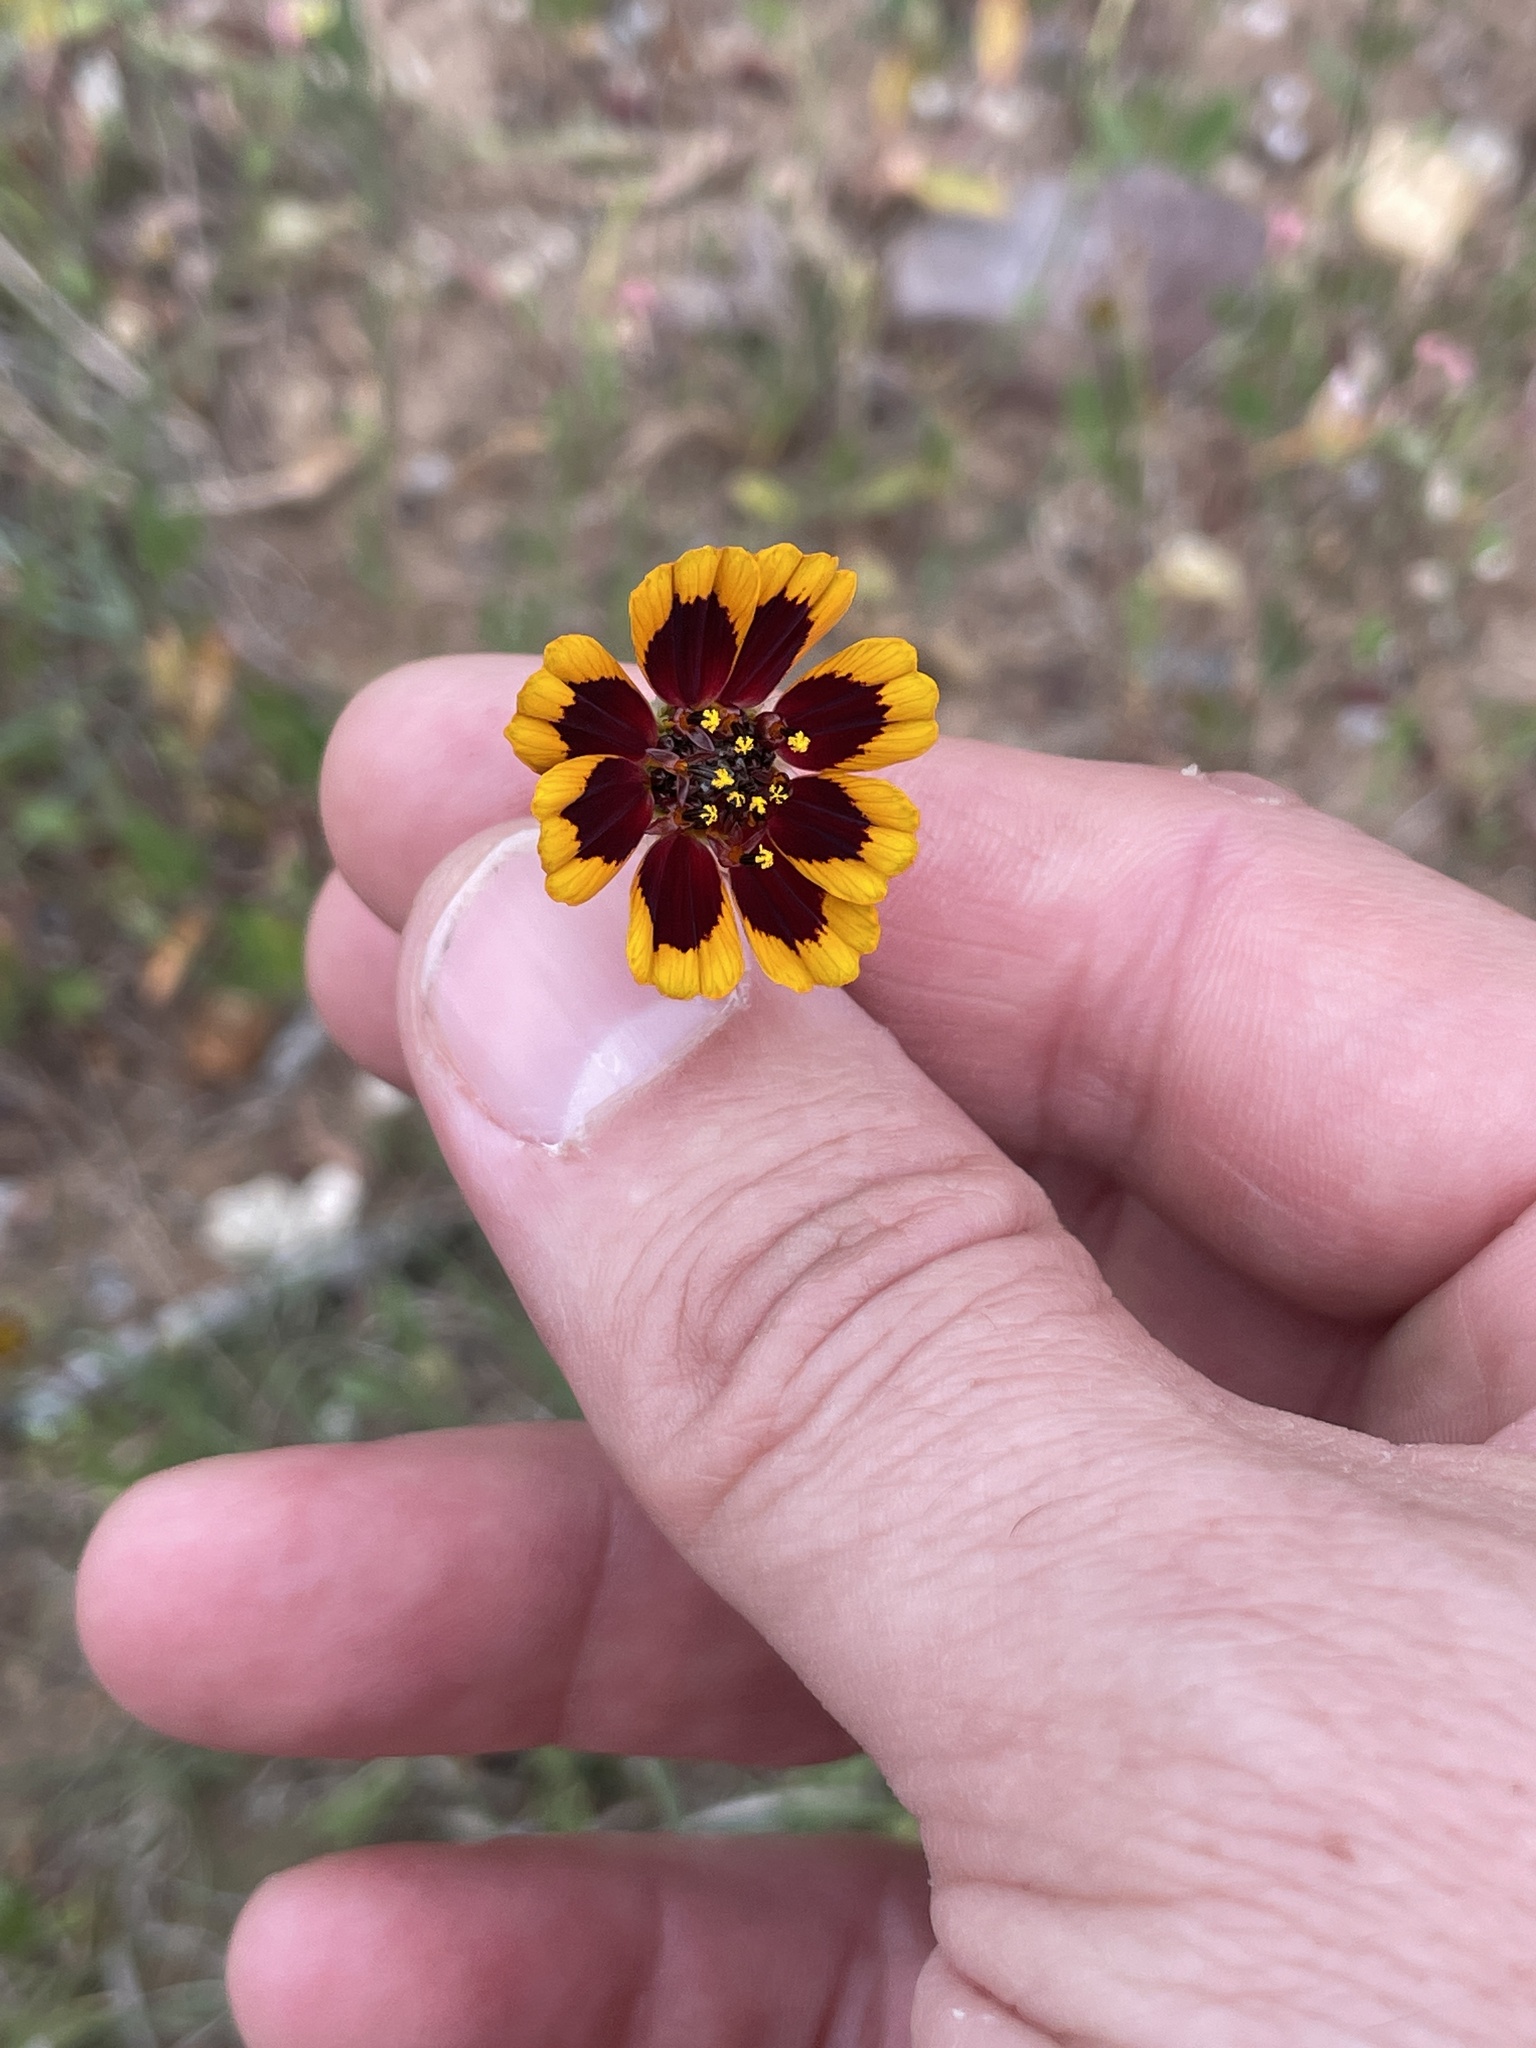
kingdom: Plantae
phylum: Tracheophyta
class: Magnoliopsida
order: Asterales
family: Asteraceae
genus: Thelesperma
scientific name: Thelesperma burridgeanum
